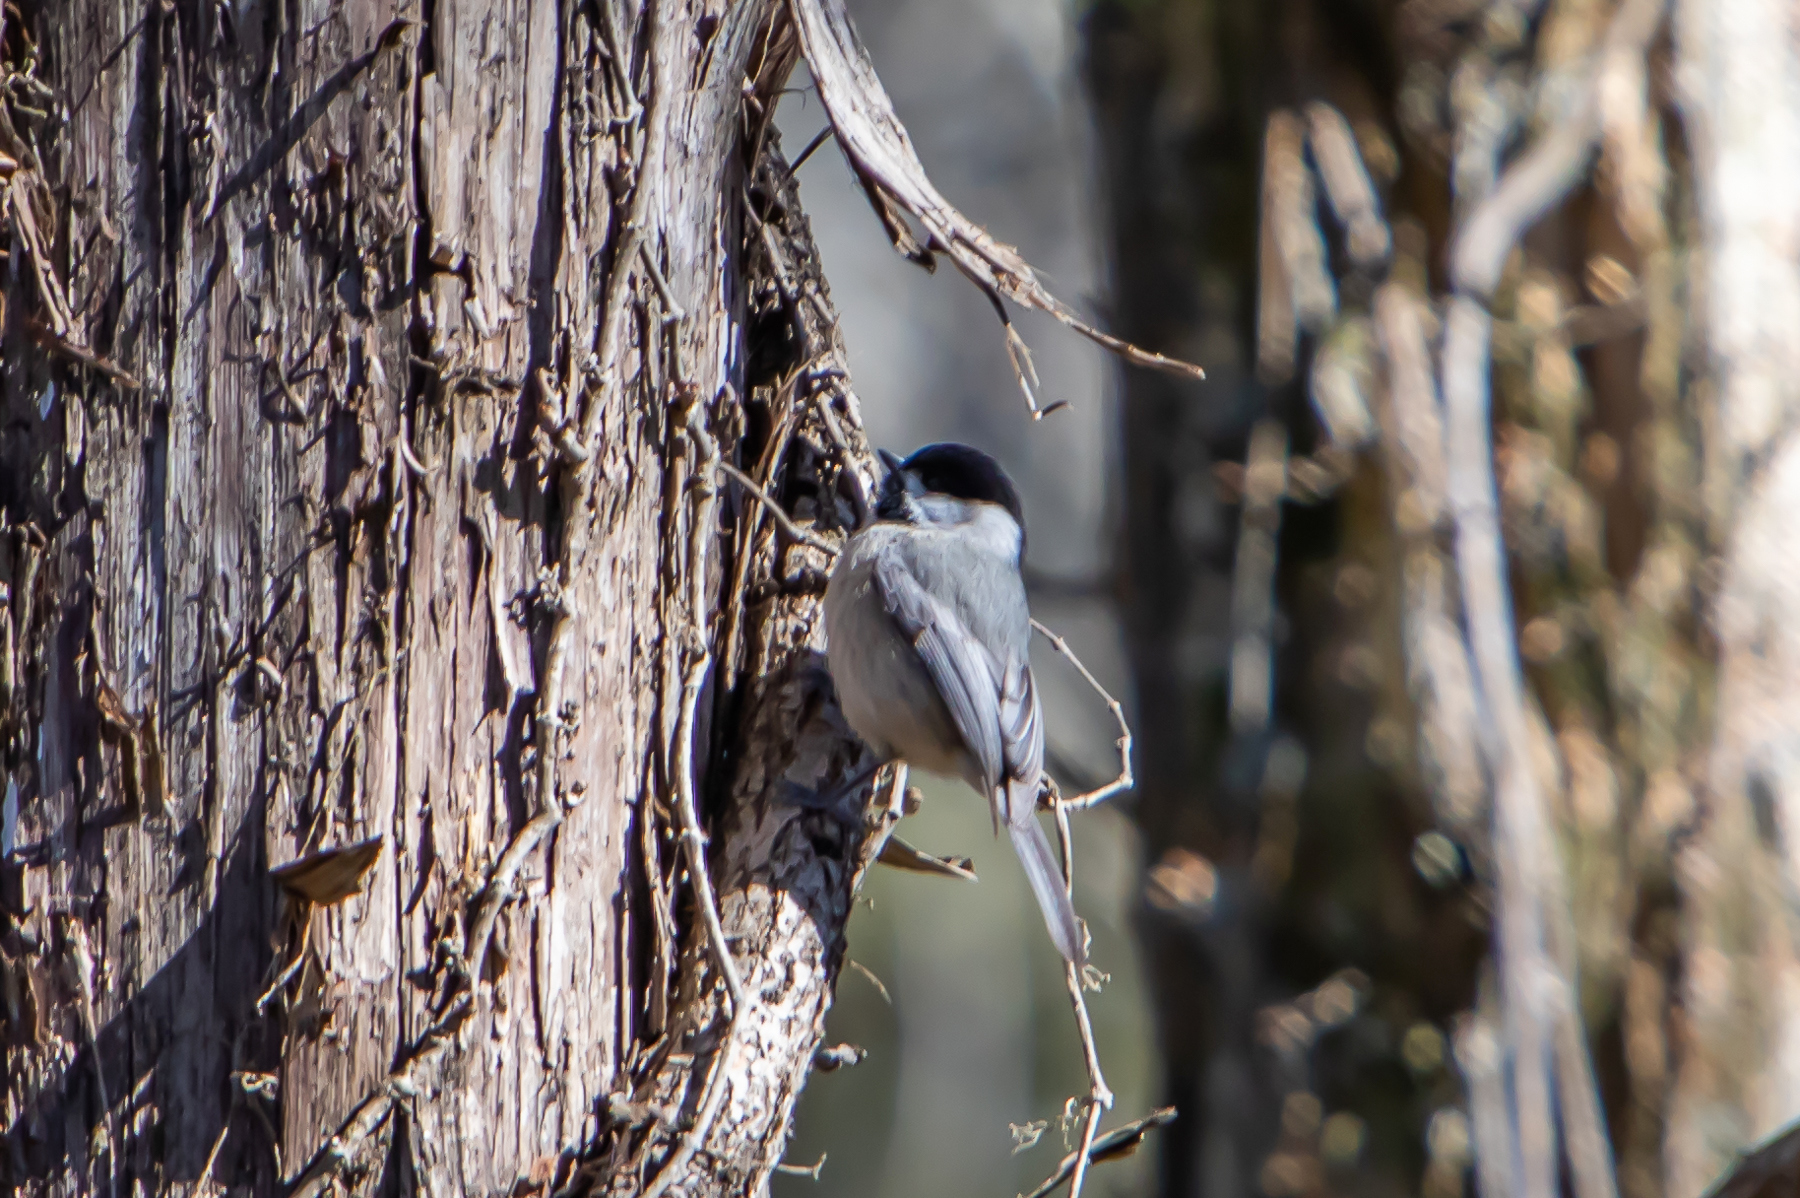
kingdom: Animalia
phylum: Chordata
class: Aves
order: Passeriformes
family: Paridae
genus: Poecile
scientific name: Poecile carolinensis
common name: Carolina chickadee
